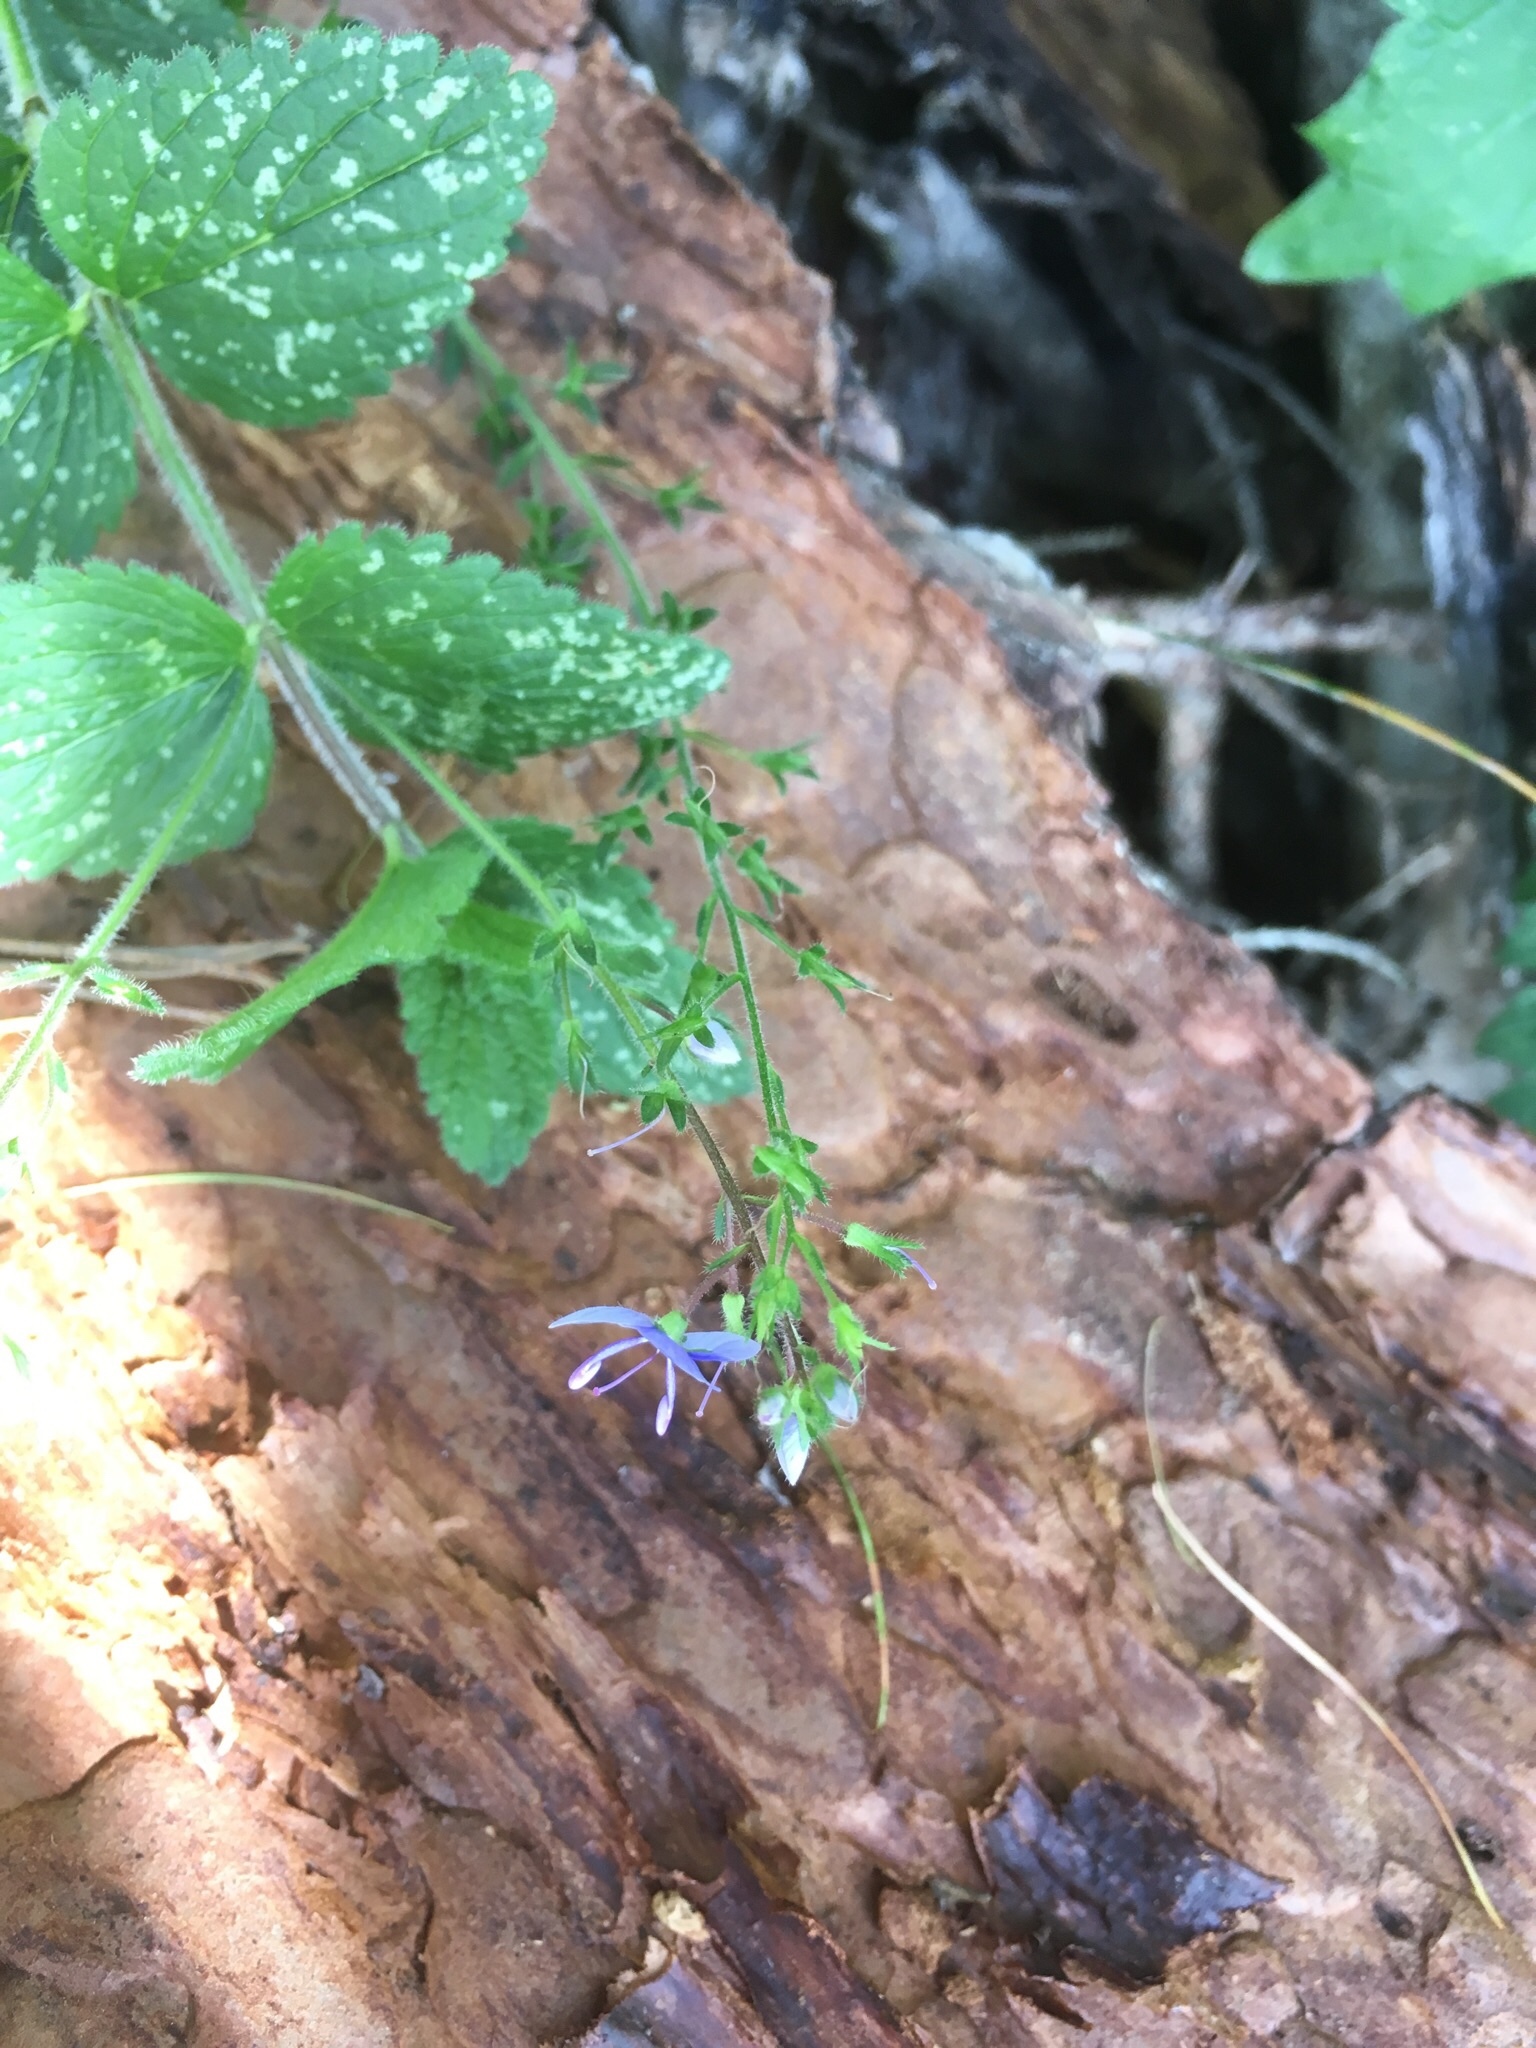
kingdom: Plantae
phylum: Tracheophyta
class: Magnoliopsida
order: Lamiales
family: Plantaginaceae
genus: Veronica
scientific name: Veronica chamaedrys
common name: Germander speedwell
